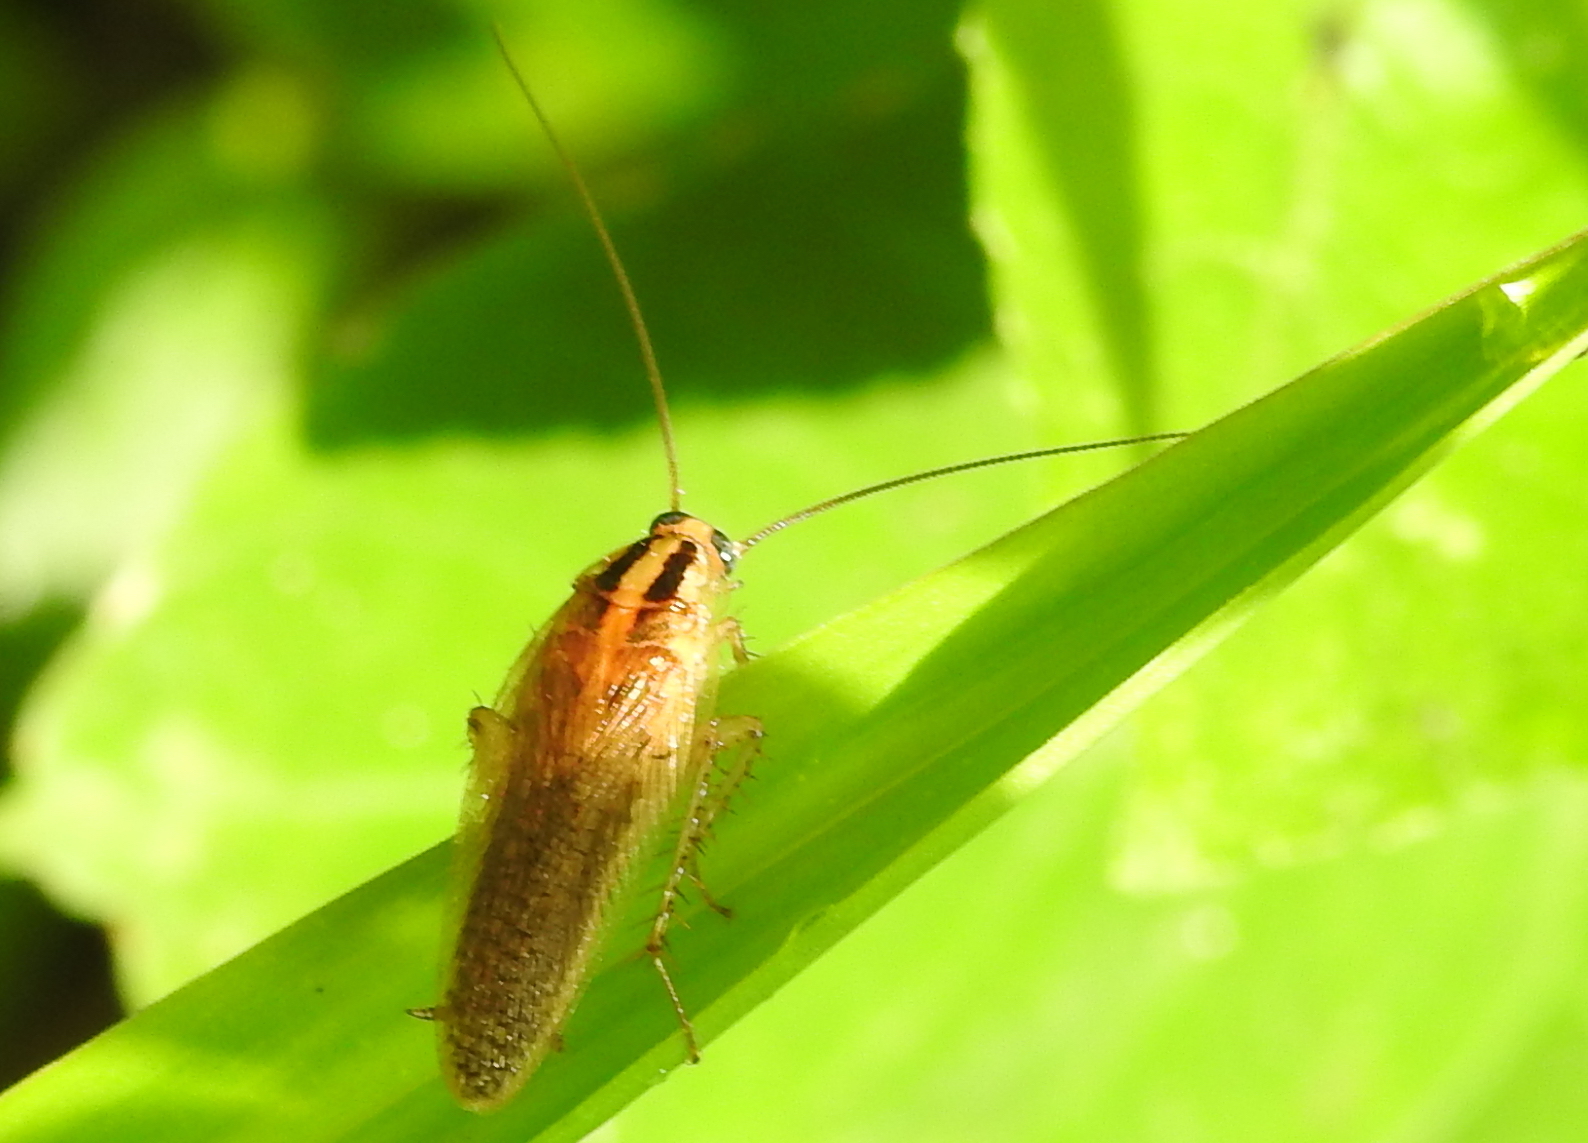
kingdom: Animalia
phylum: Arthropoda
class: Insecta
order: Blattodea
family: Ectobiidae
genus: Blattella
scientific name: Blattella asahinai
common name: Asian cockroach
